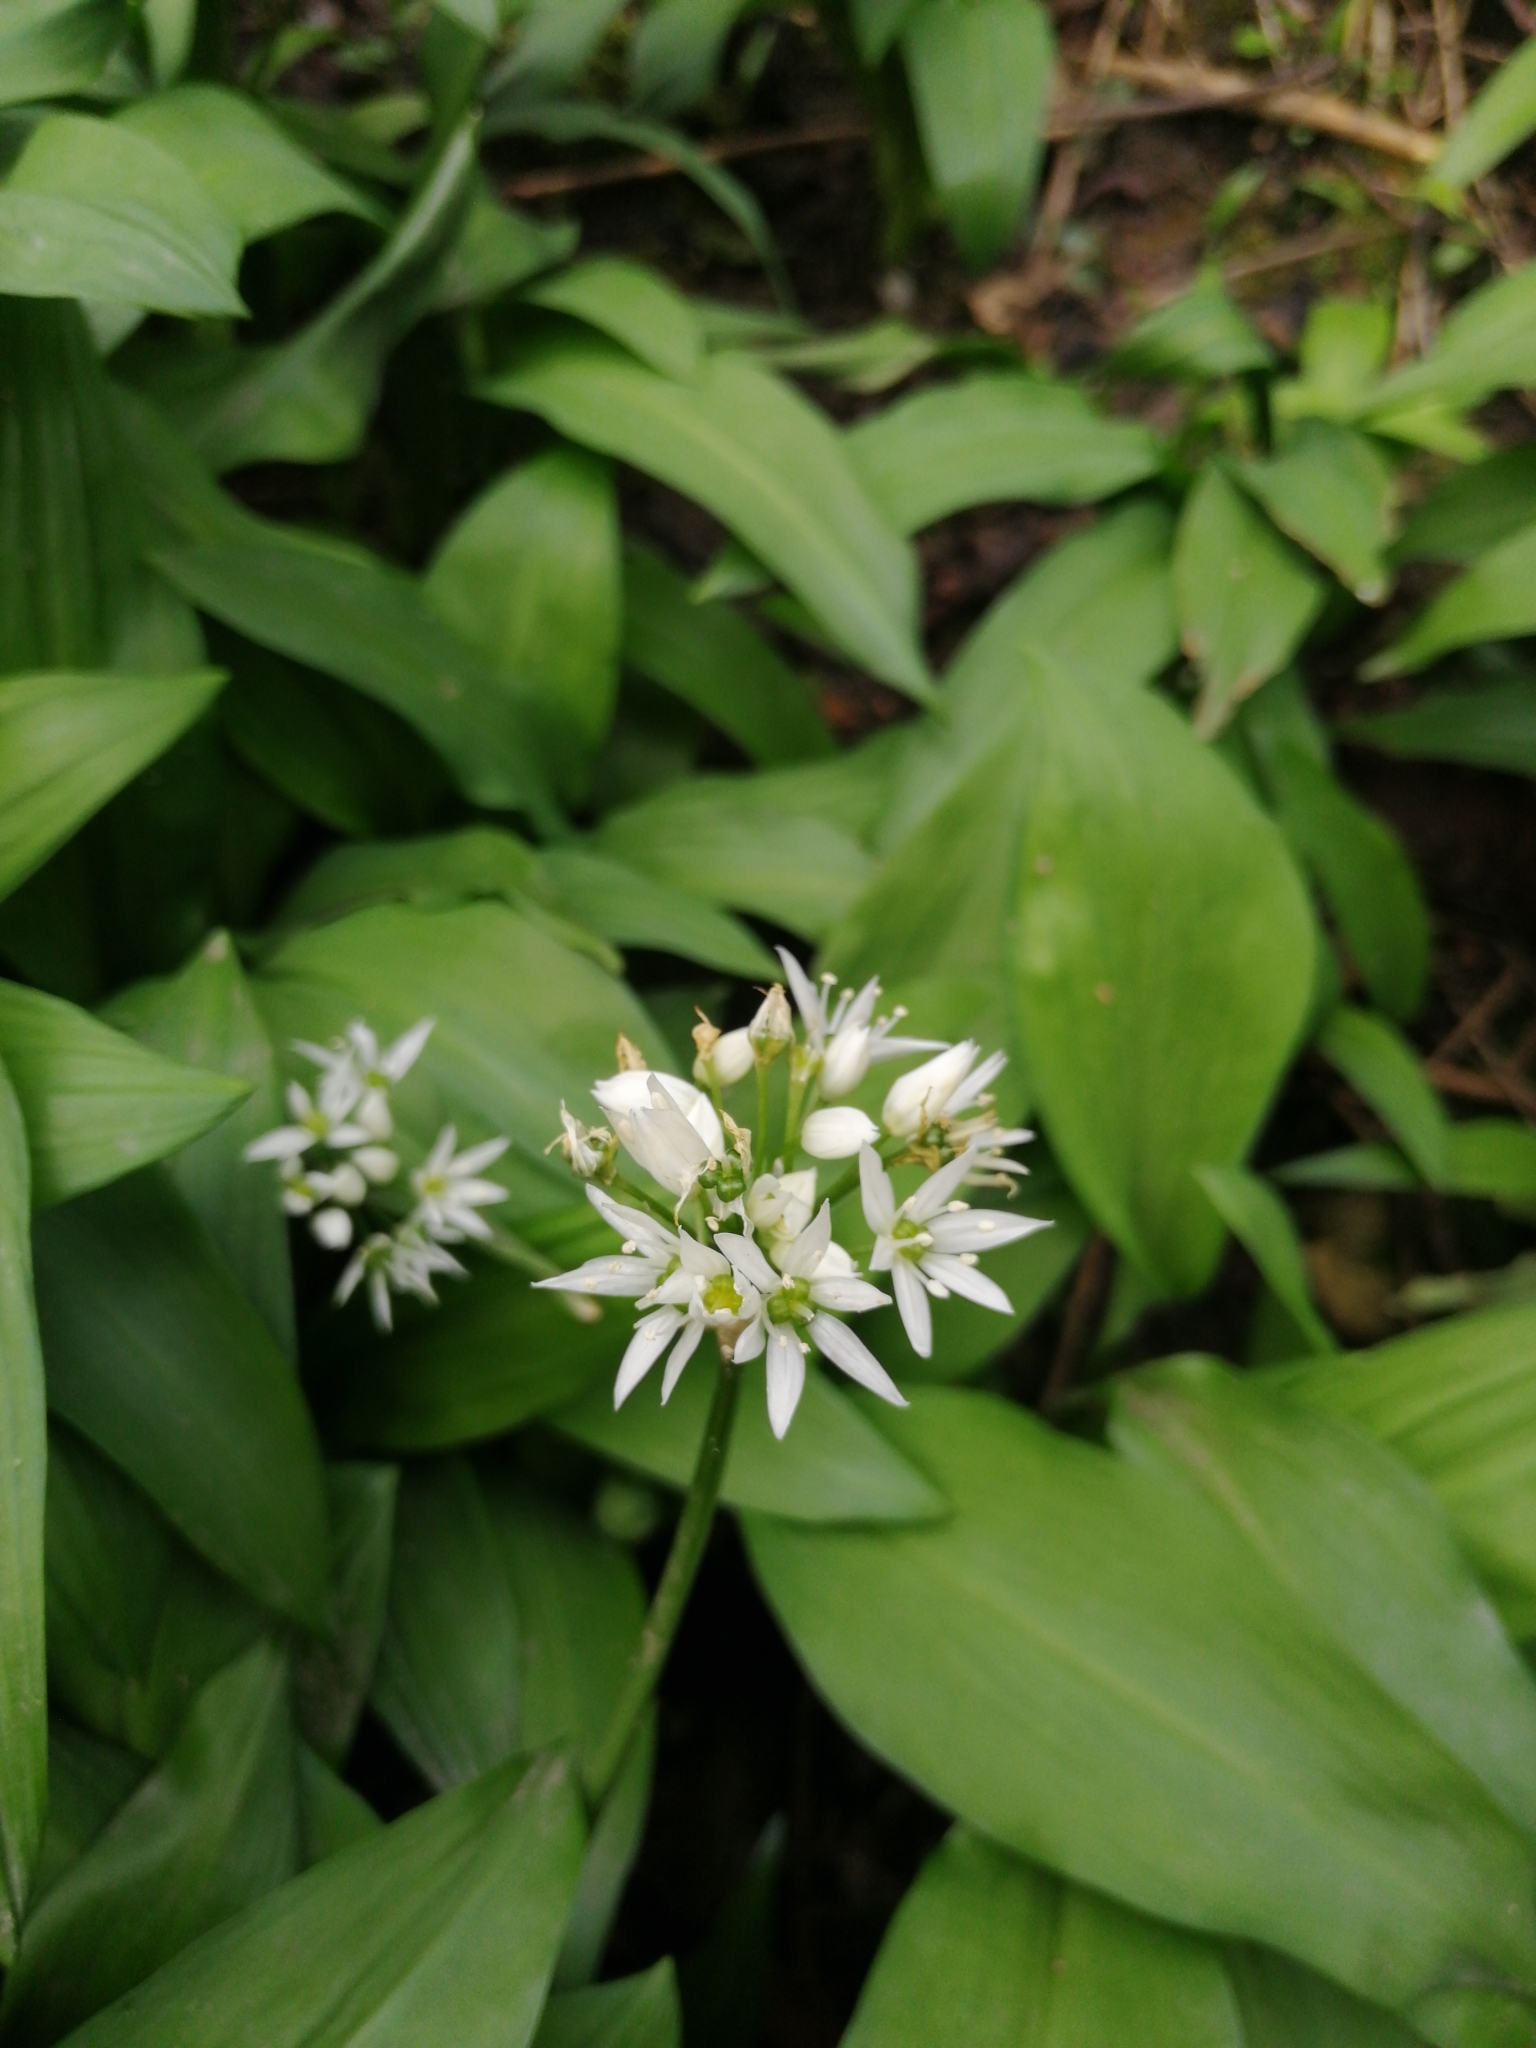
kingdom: Plantae
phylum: Tracheophyta
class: Liliopsida
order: Asparagales
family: Amaryllidaceae
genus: Allium
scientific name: Allium ursinum
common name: Ramsons
